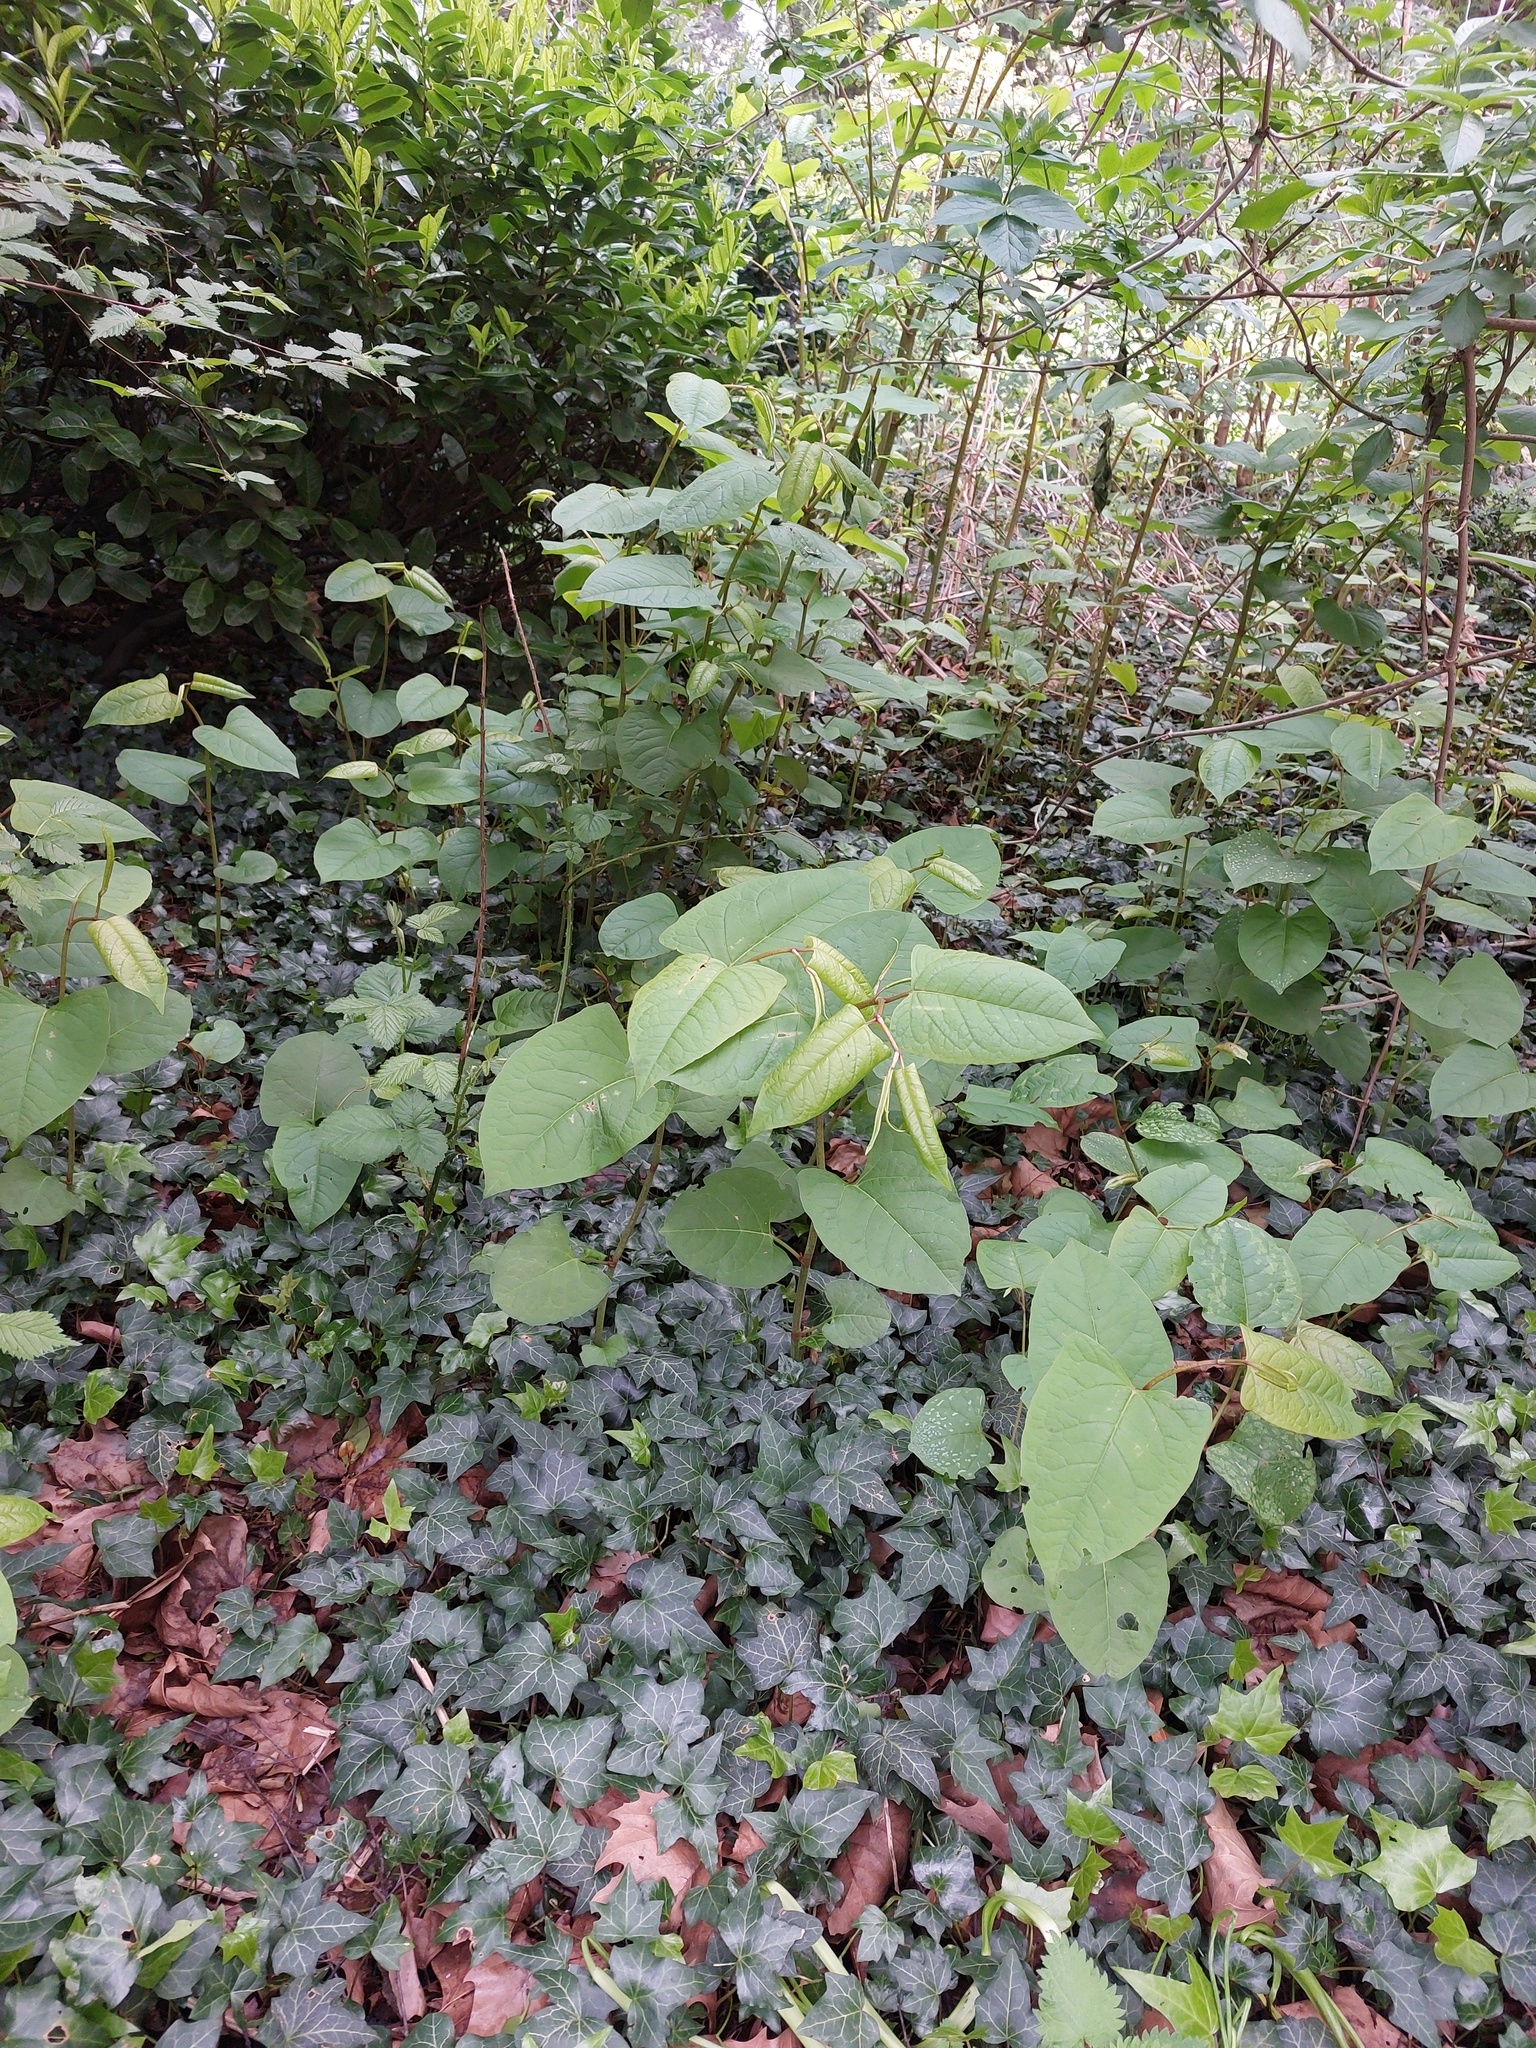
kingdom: Plantae
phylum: Tracheophyta
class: Magnoliopsida
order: Caryophyllales
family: Polygonaceae
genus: Reynoutria
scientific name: Reynoutria japonica
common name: Japanese knotweed
